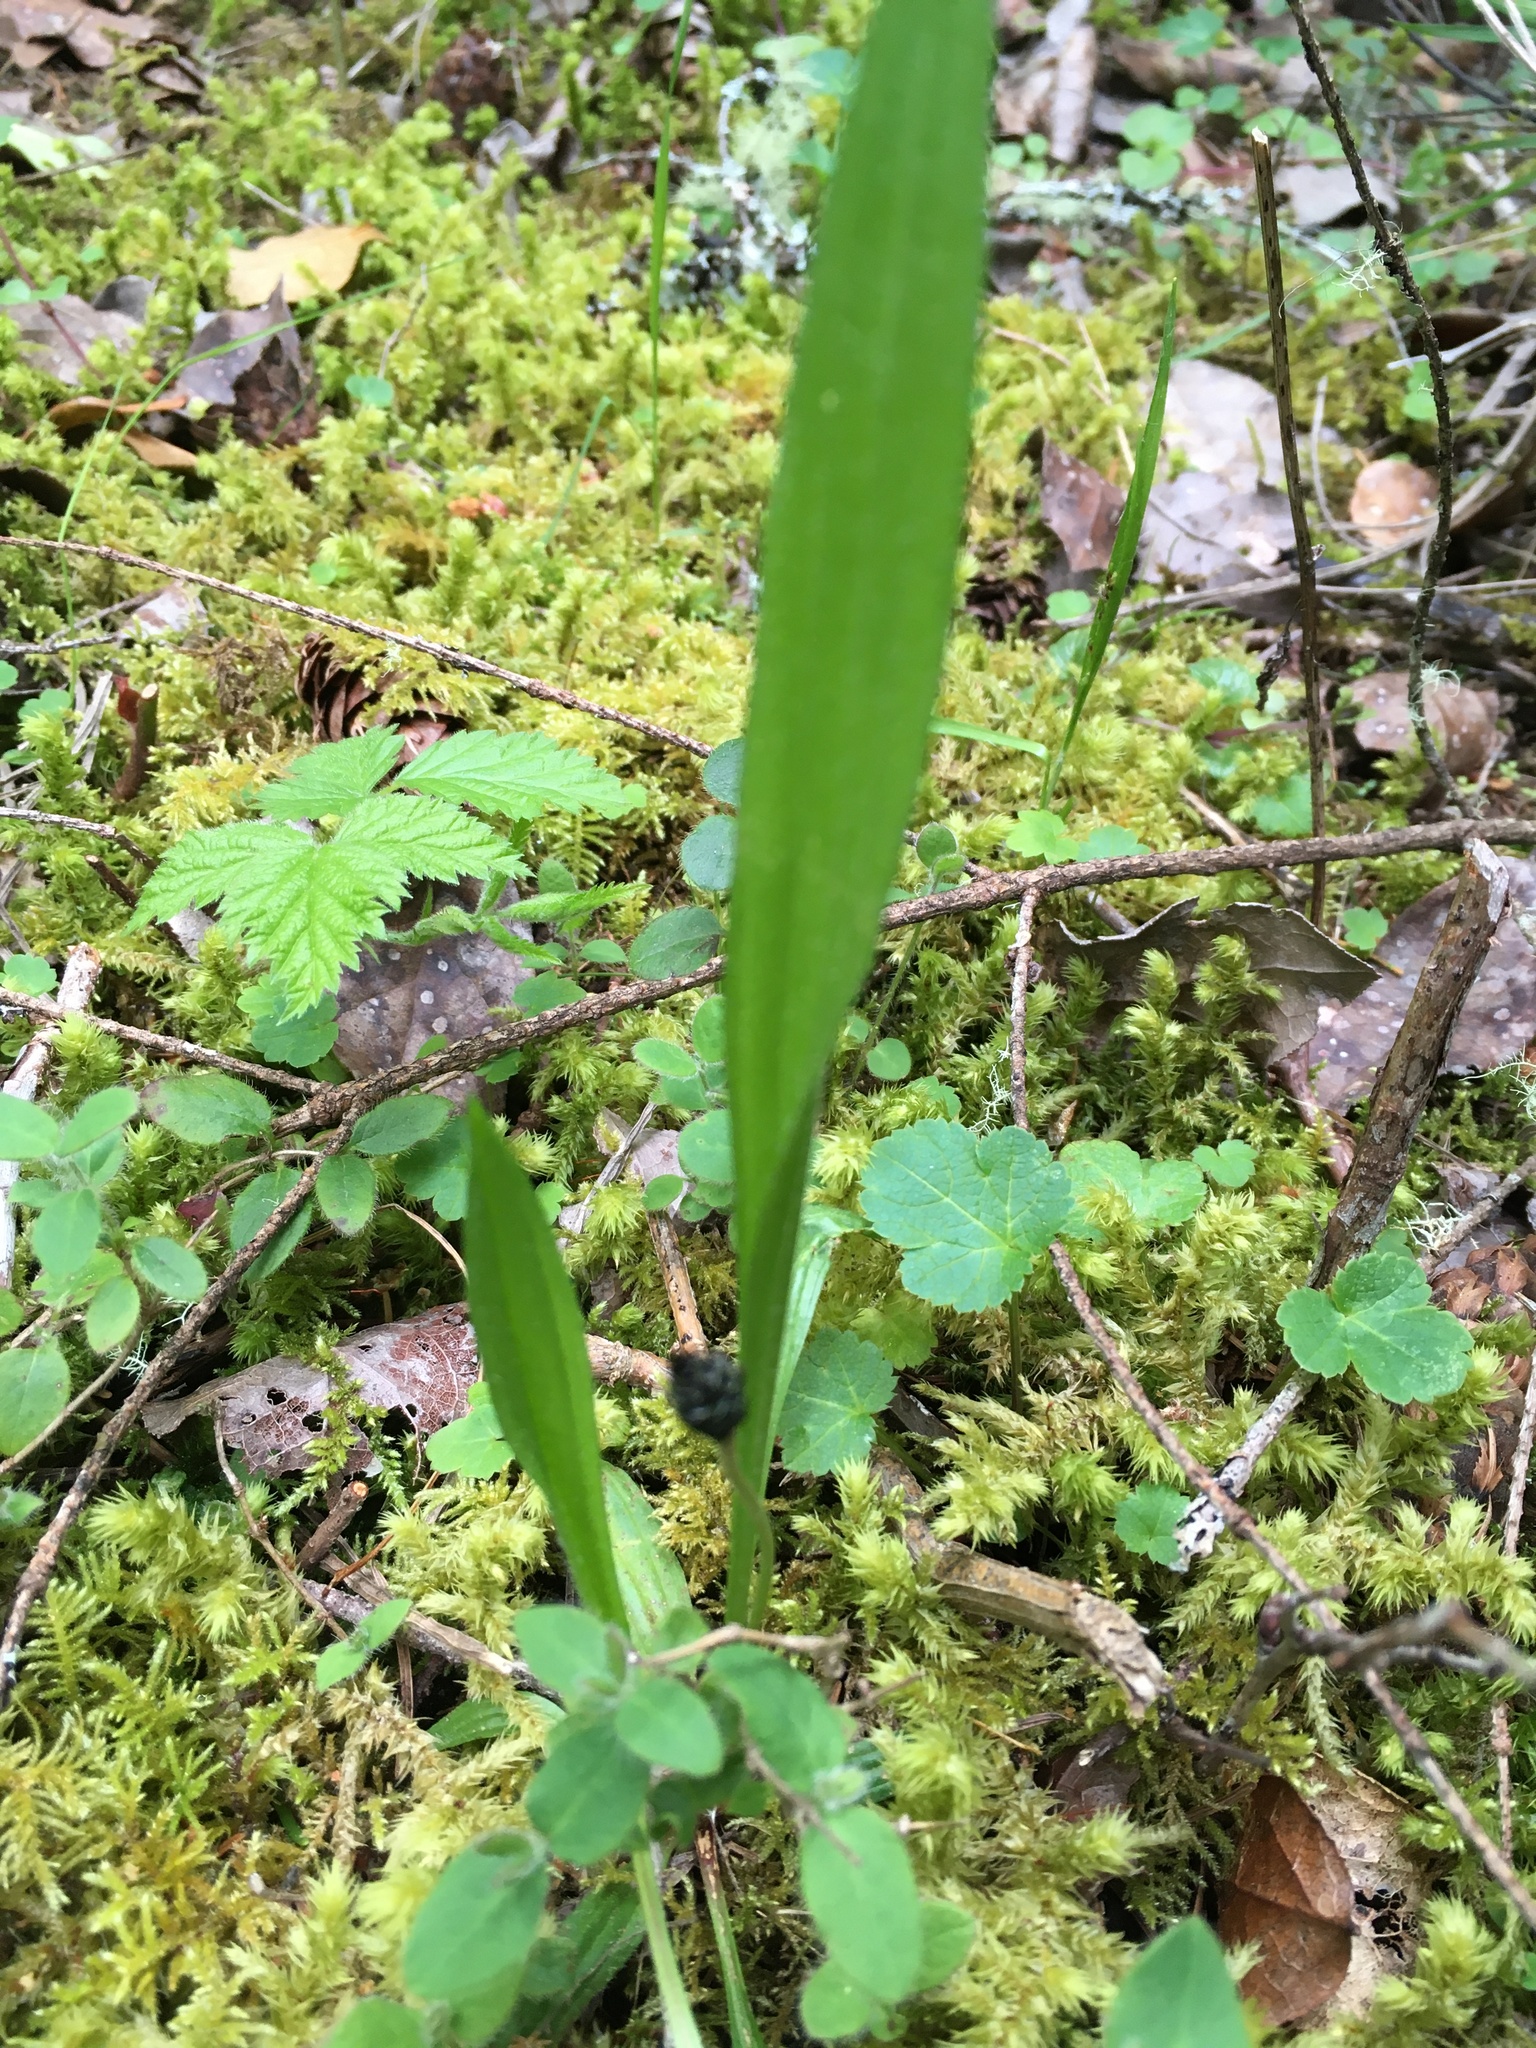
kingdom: Plantae
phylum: Tracheophyta
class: Magnoliopsida
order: Lamiales
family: Plantaginaceae
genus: Plantago
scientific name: Plantago lanceolata
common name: Ribwort plantain
